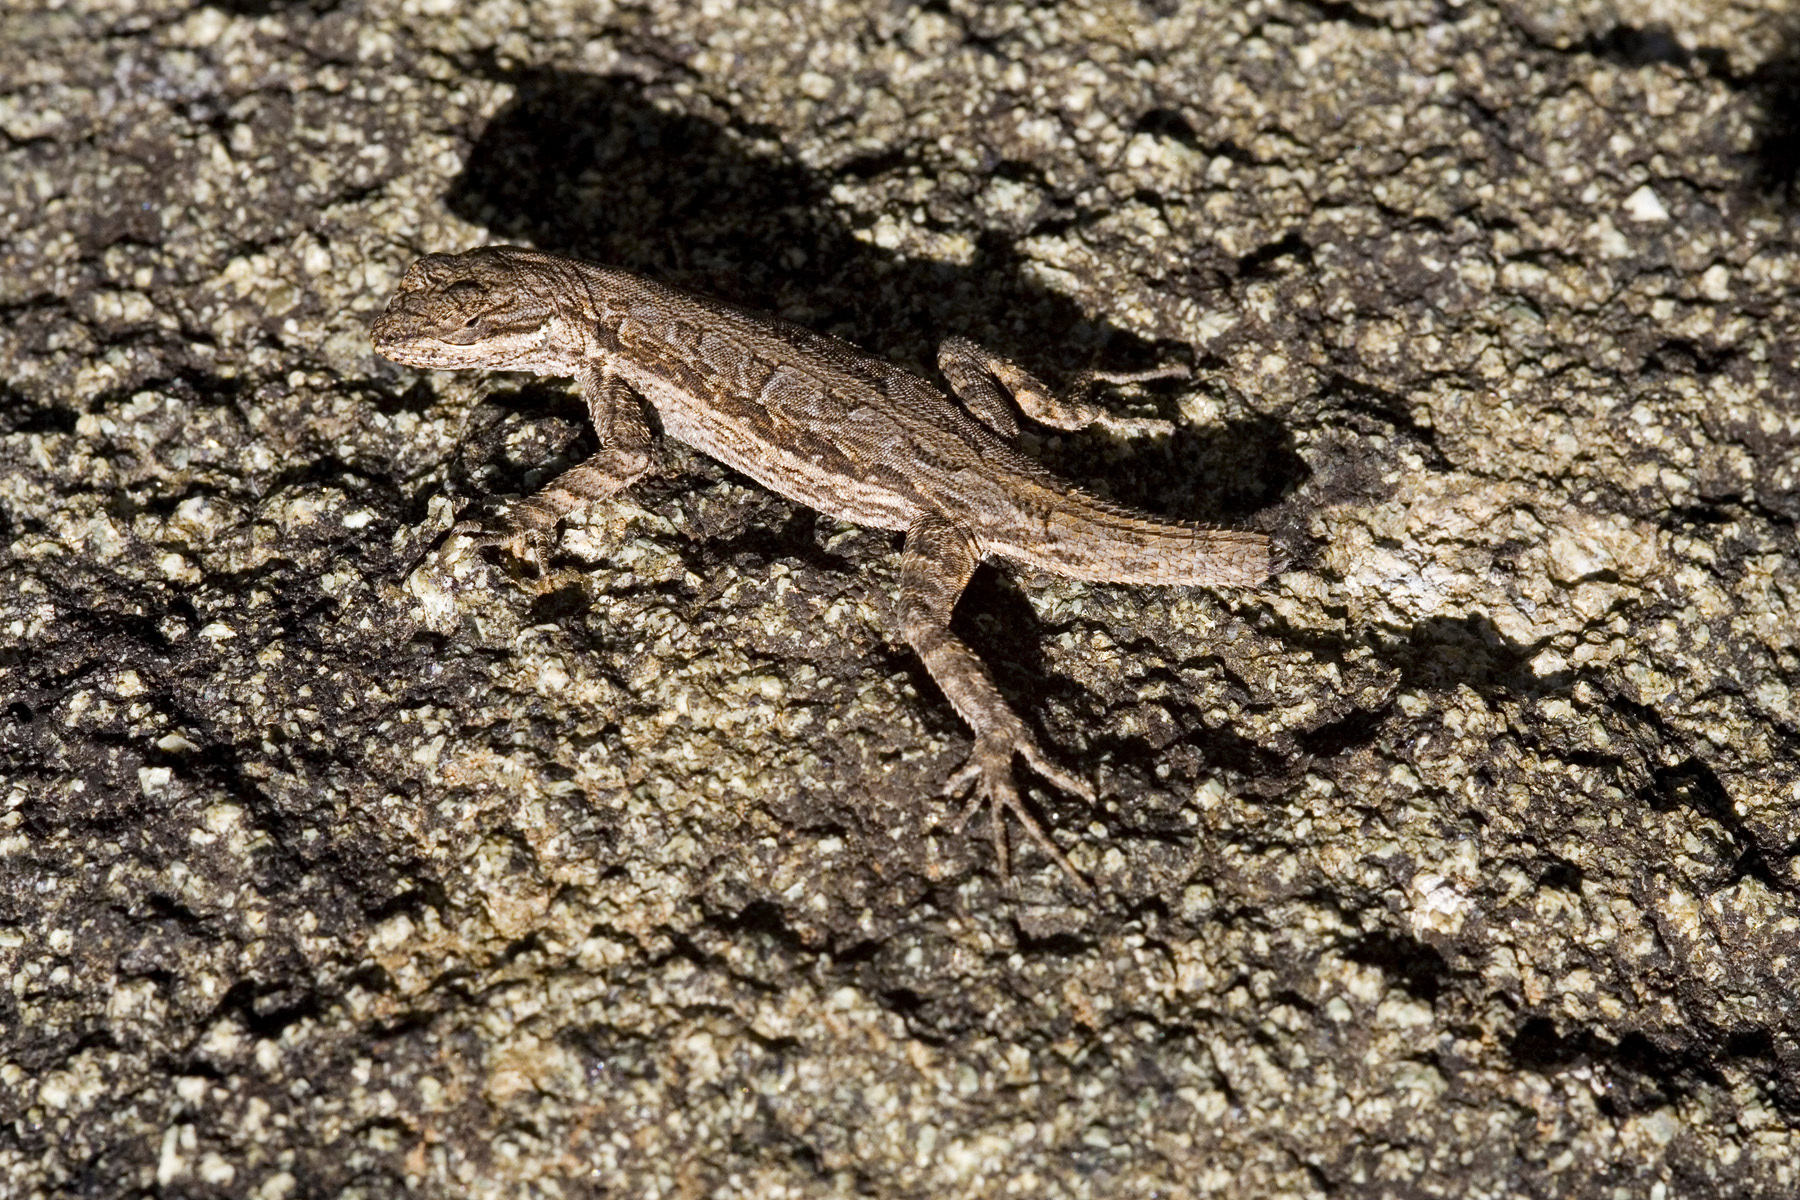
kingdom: Animalia
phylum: Chordata
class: Squamata
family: Phrynosomatidae
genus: Urosaurus
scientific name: Urosaurus ornatus
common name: Ornate tree lizard
